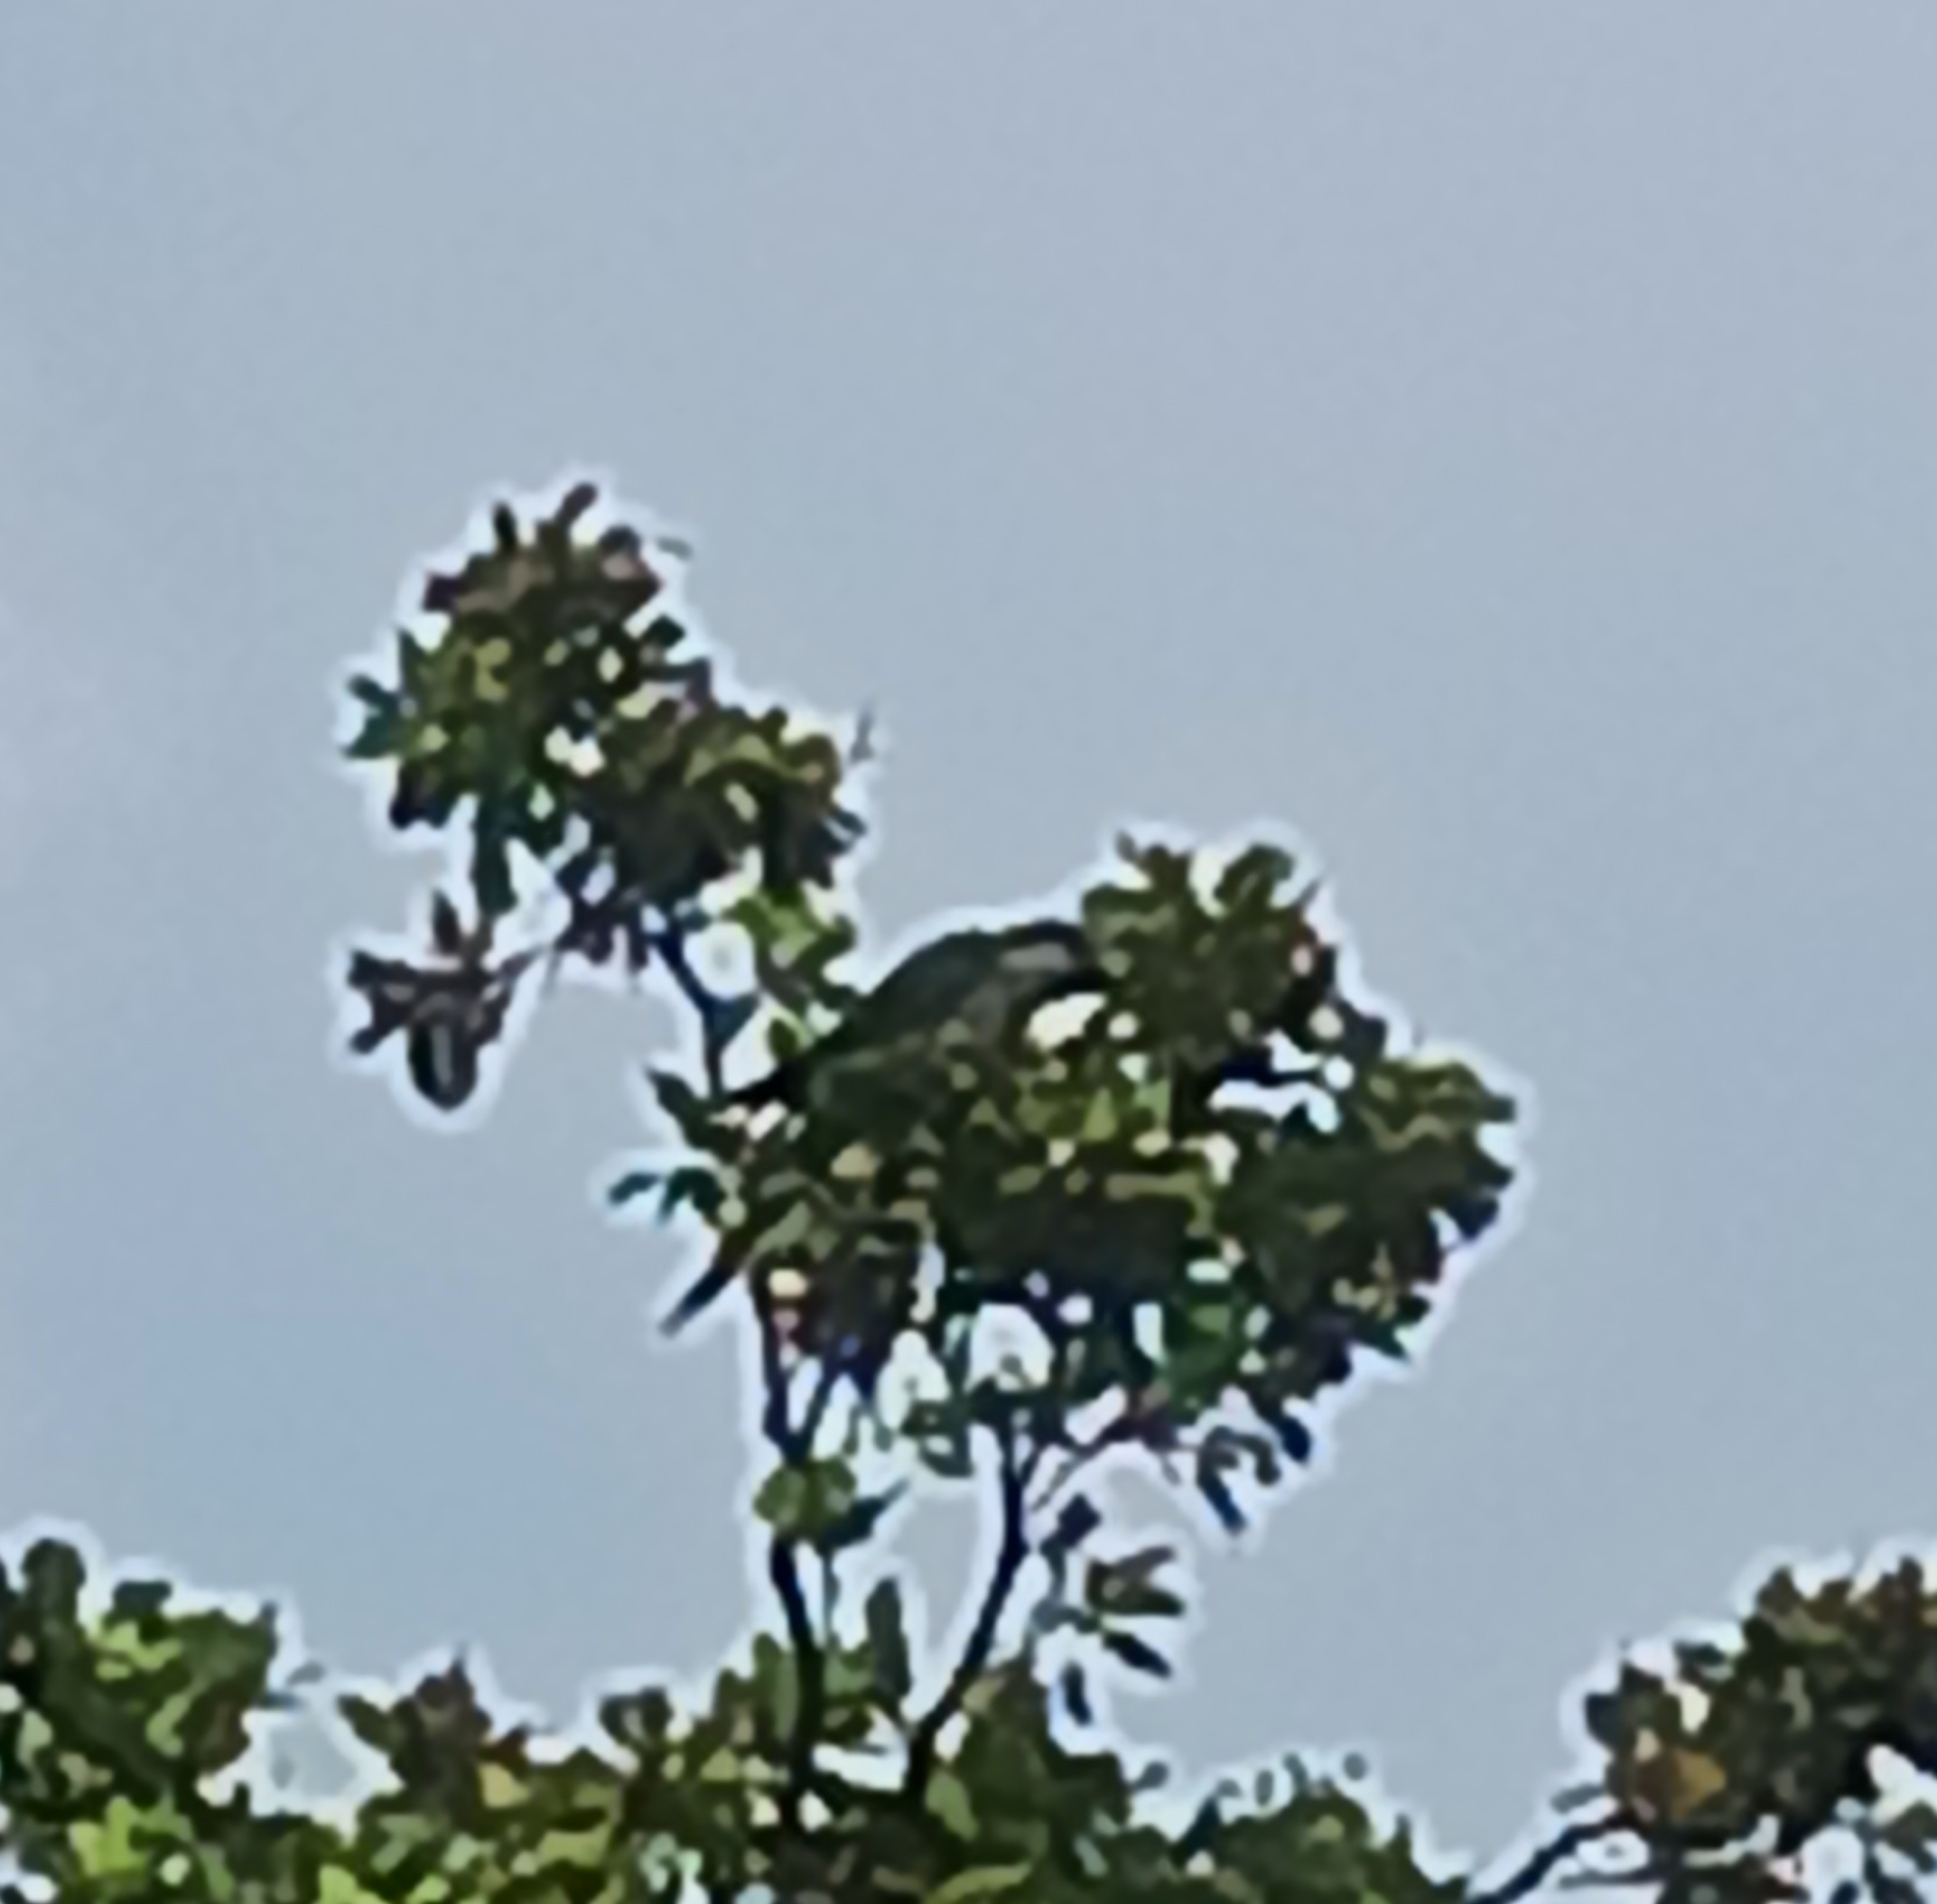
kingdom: Animalia
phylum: Chordata
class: Aves
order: Psittaciformes
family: Psittacidae
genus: Myiopsitta
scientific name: Myiopsitta monachus
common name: Monk parakeet
